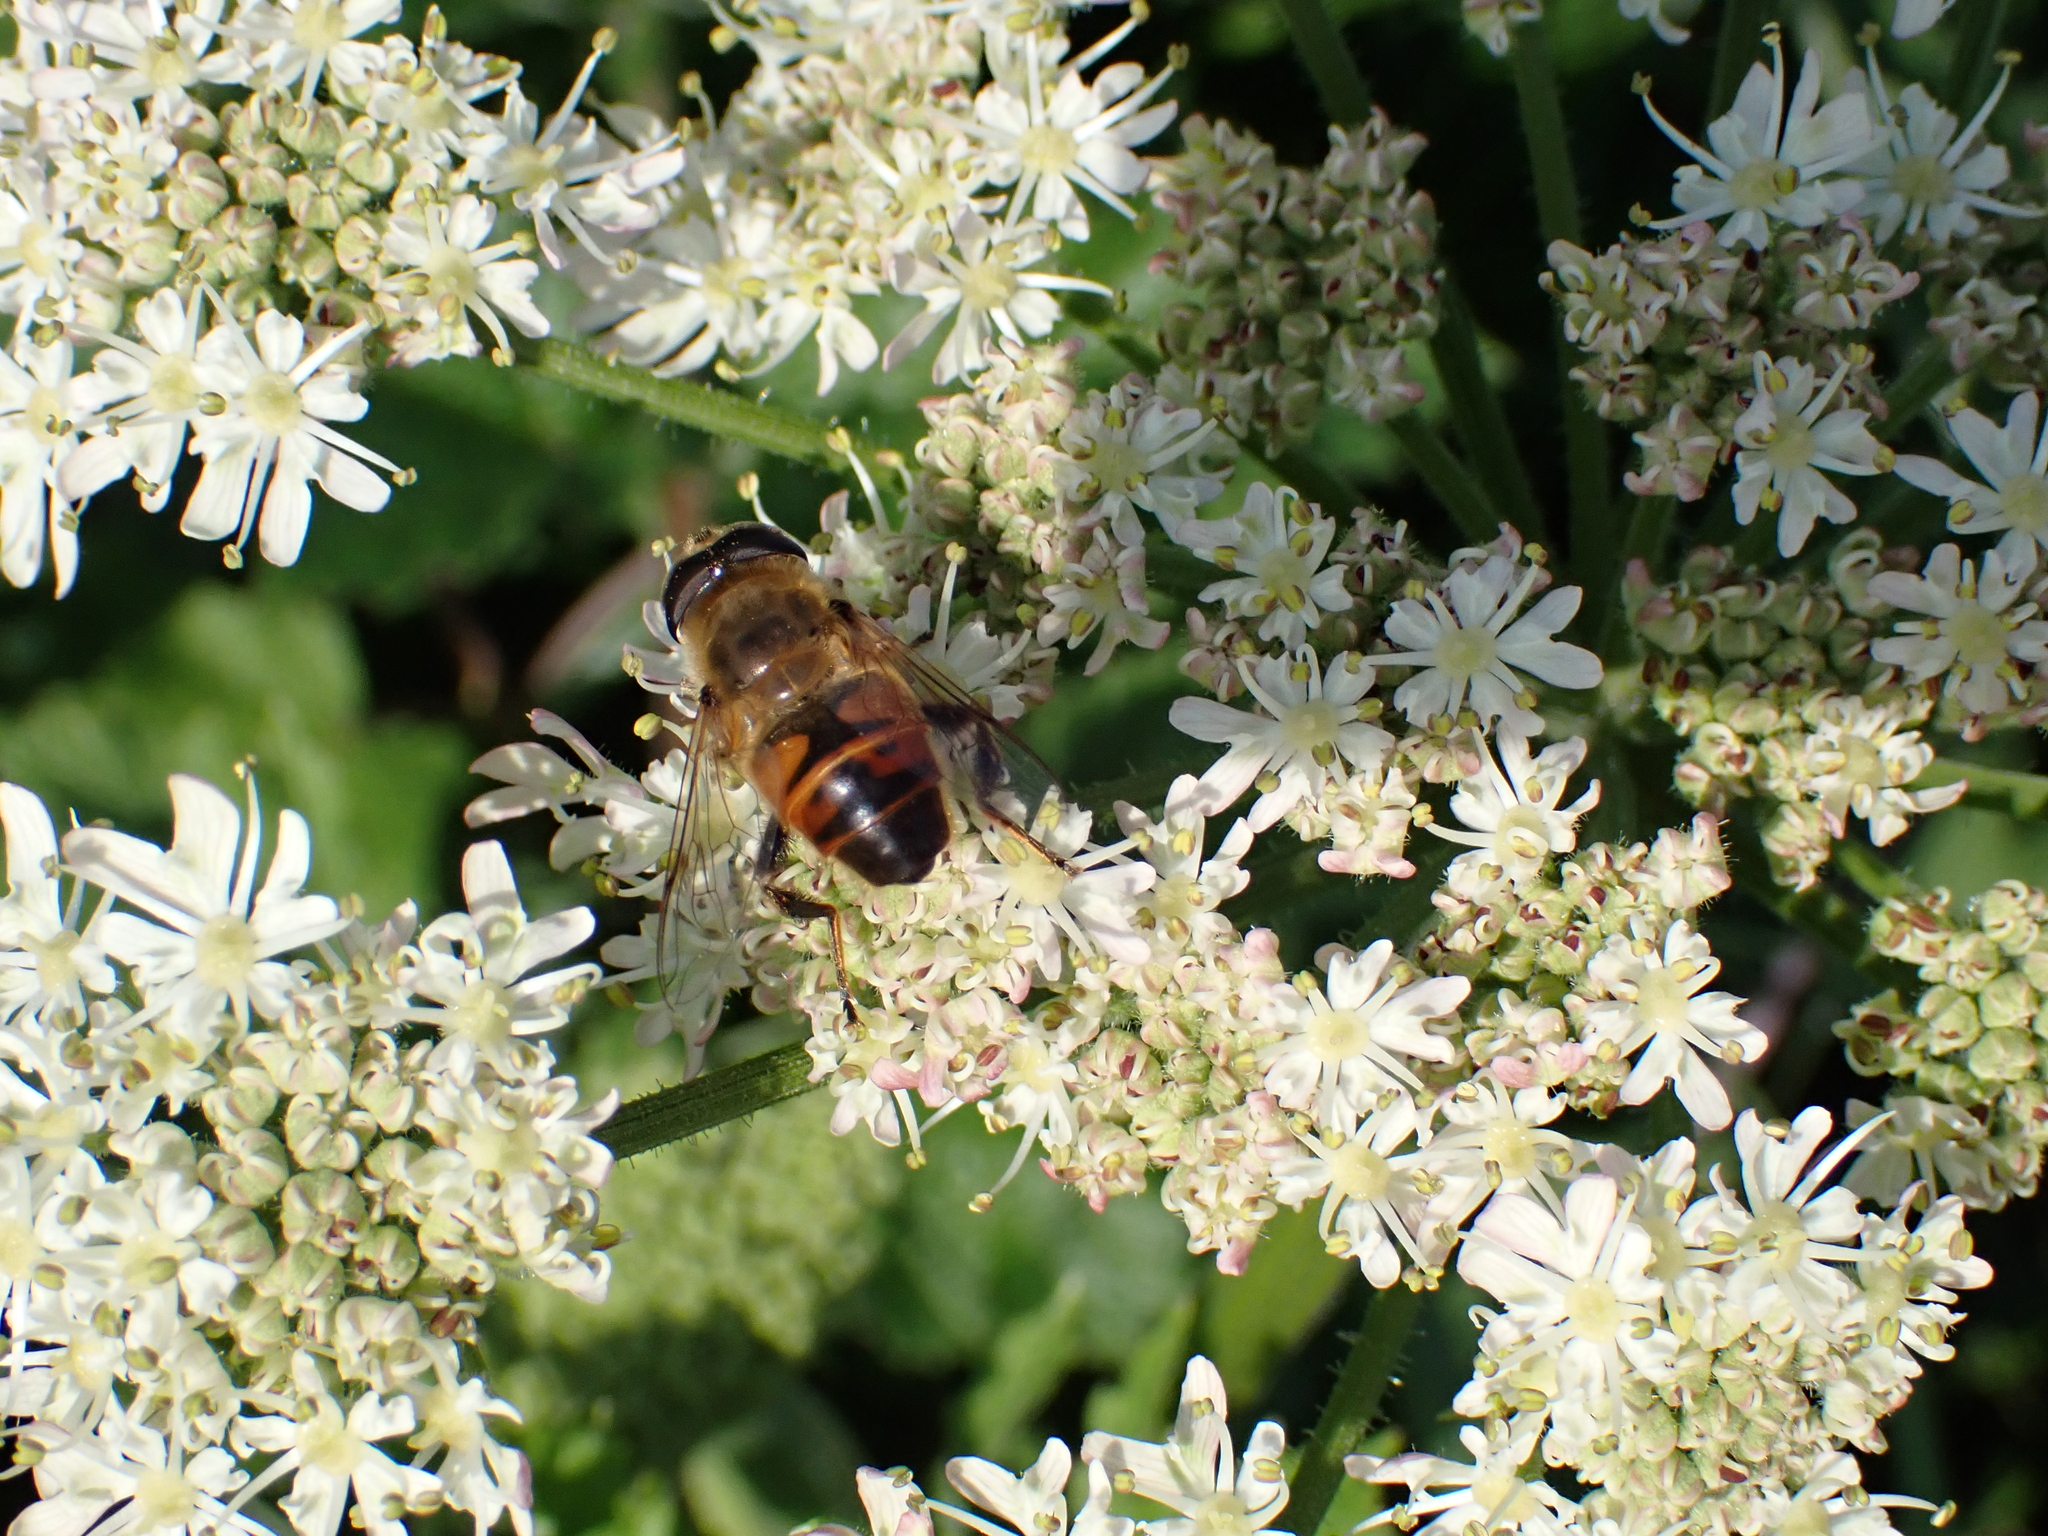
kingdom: Animalia
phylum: Arthropoda
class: Insecta
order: Diptera
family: Syrphidae
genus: Eristalis
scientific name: Eristalis tenax
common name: Drone fly
